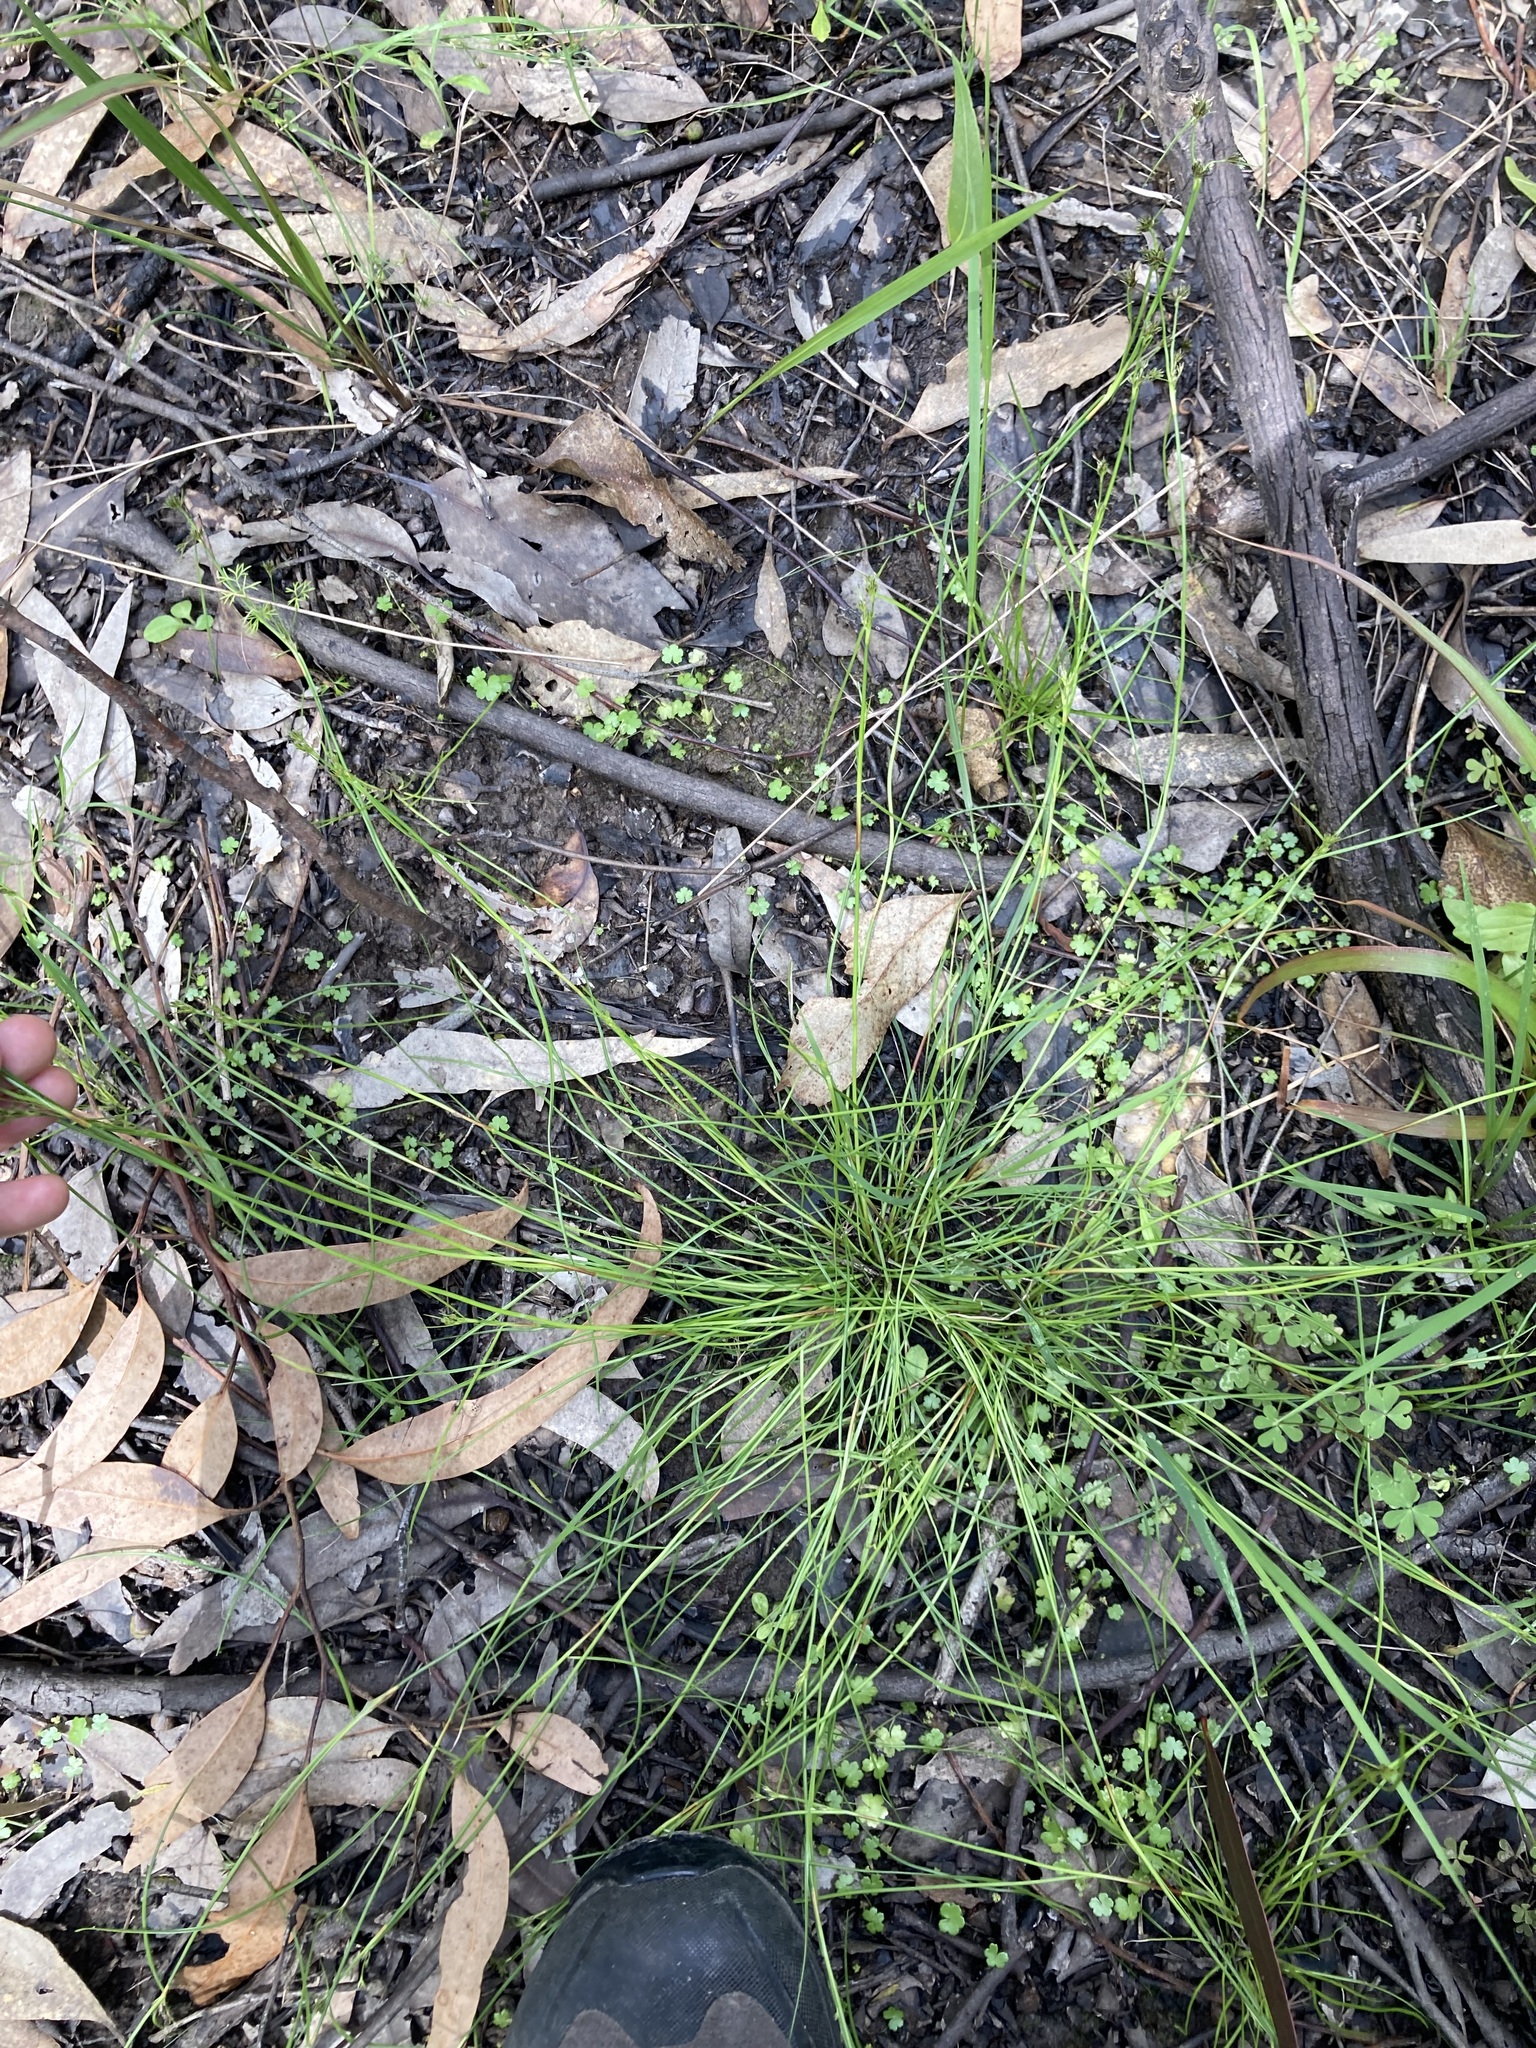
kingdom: Plantae
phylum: Tracheophyta
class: Liliopsida
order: Poales
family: Cyperaceae
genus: Schoenus
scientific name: Schoenus apogon
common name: Smooth bogrush
